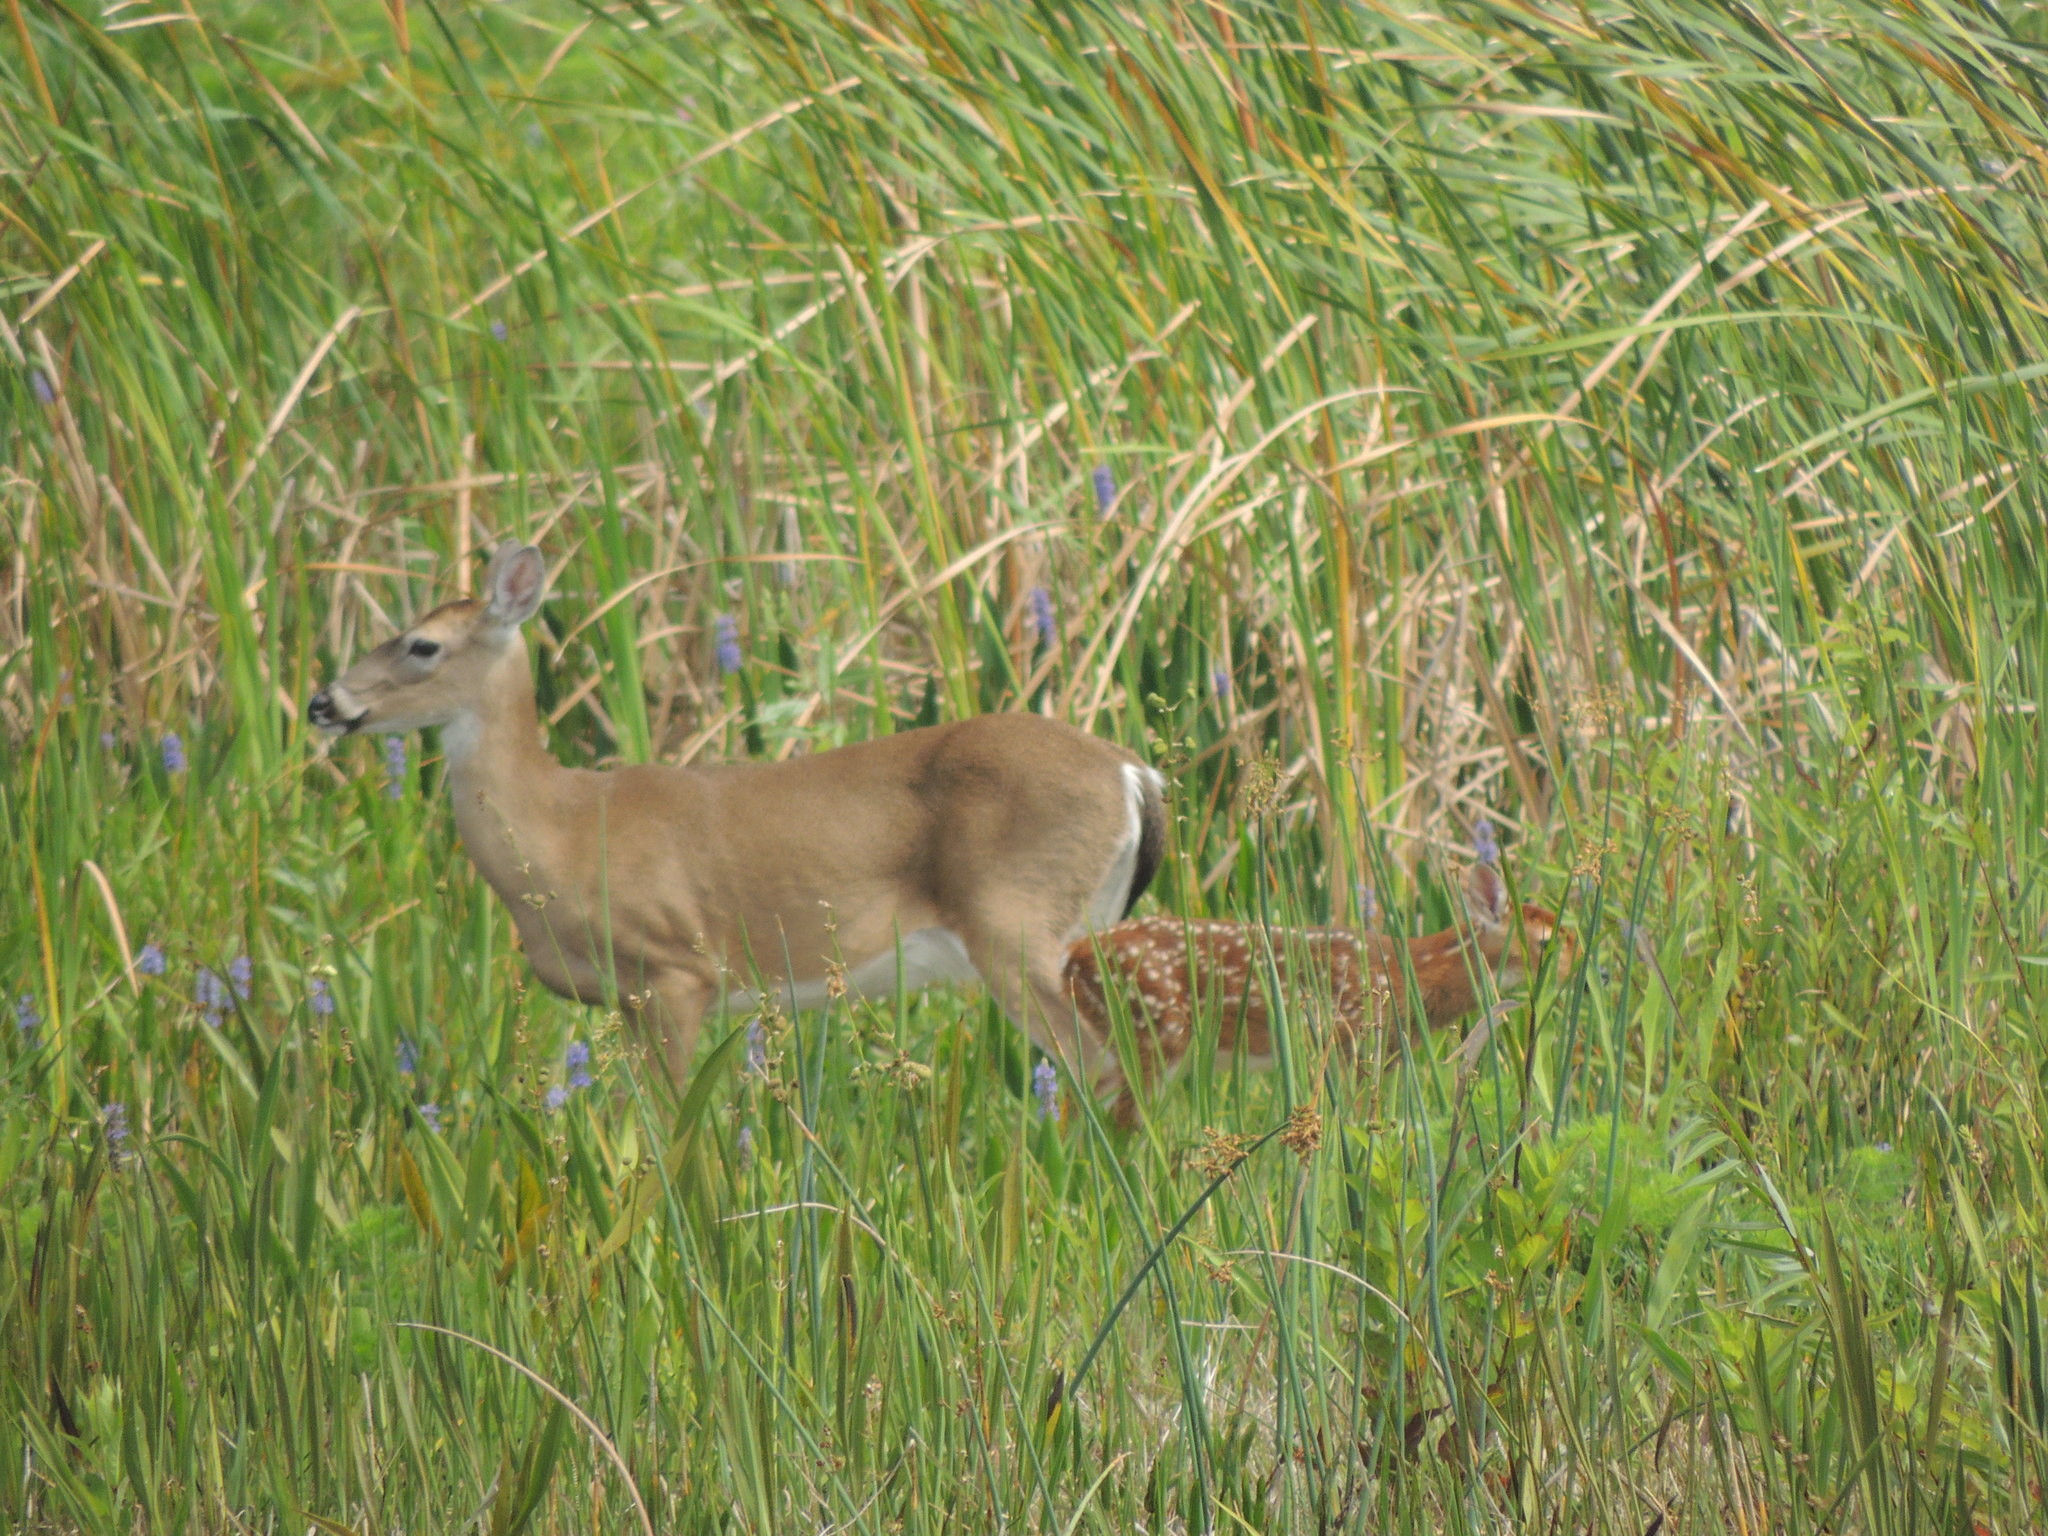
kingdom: Animalia
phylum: Chordata
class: Mammalia
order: Artiodactyla
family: Cervidae
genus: Odocoileus
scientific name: Odocoileus virginianus
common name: White-tailed deer
